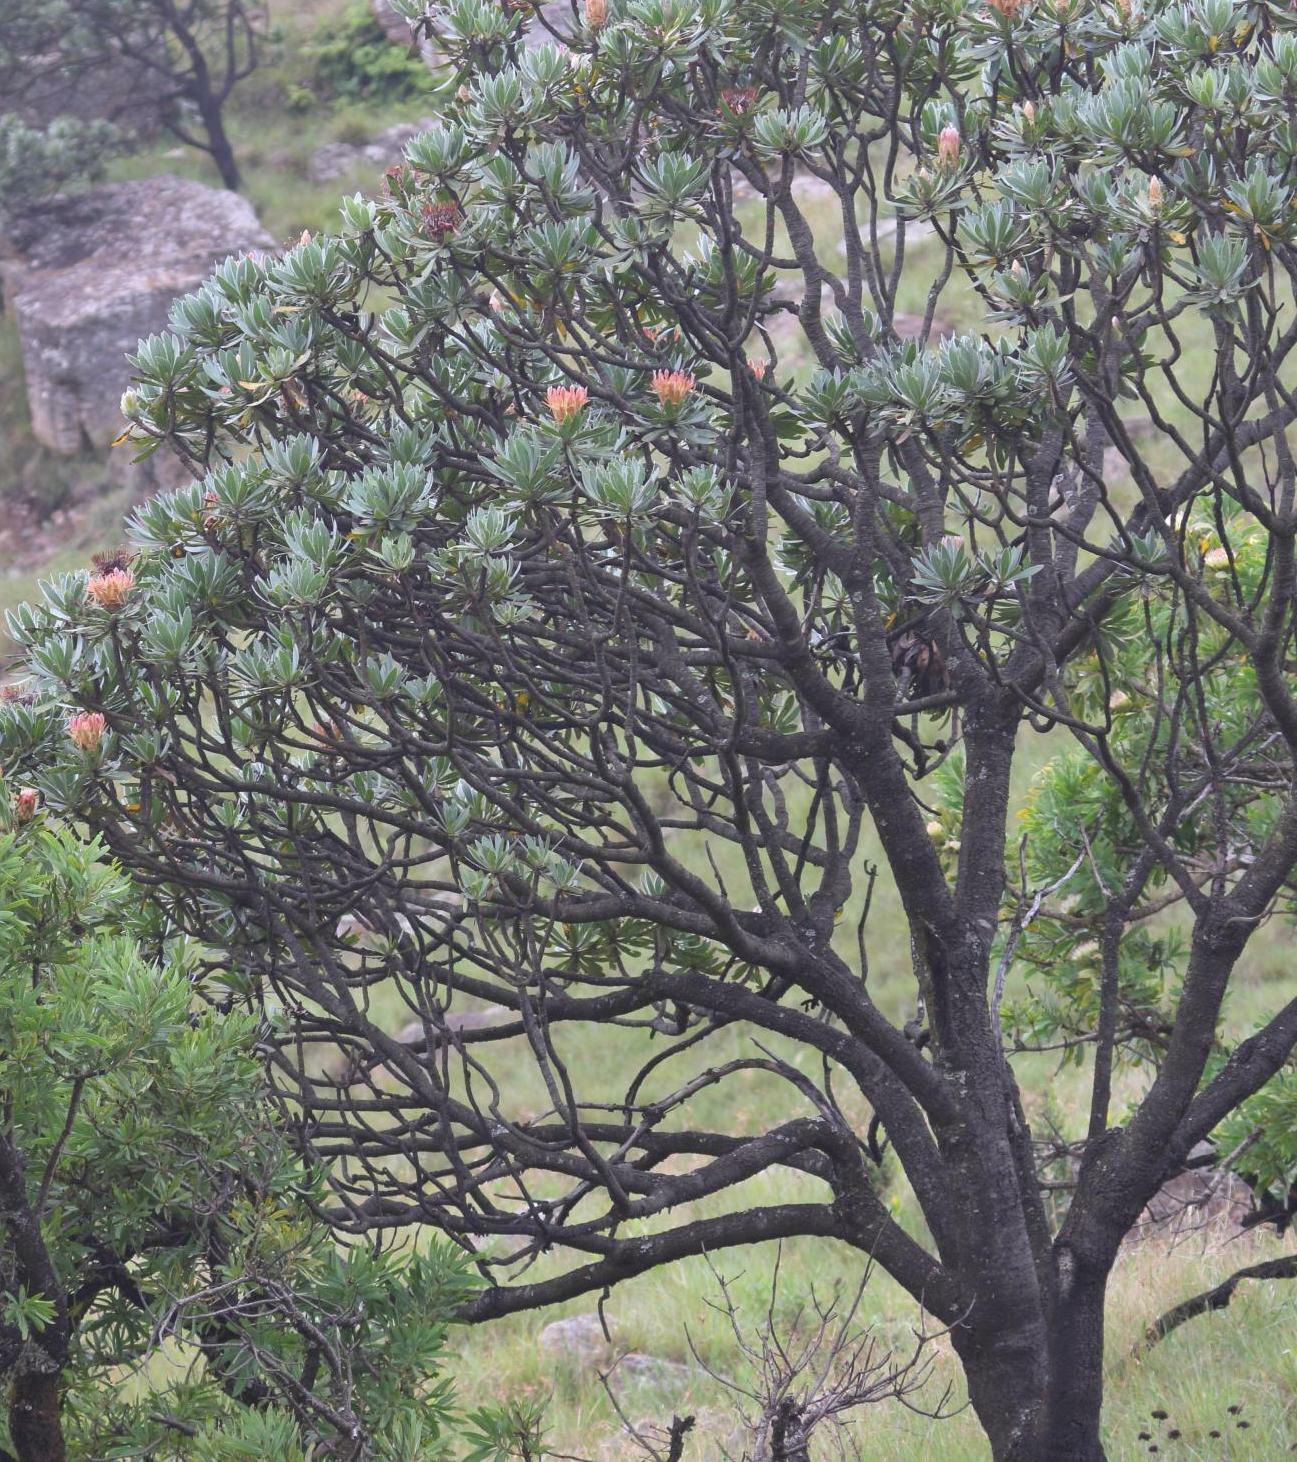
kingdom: Plantae
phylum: Tracheophyta
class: Magnoliopsida
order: Proteales
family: Proteaceae
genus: Protea
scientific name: Protea roupelliae
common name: Silver sugarbush
